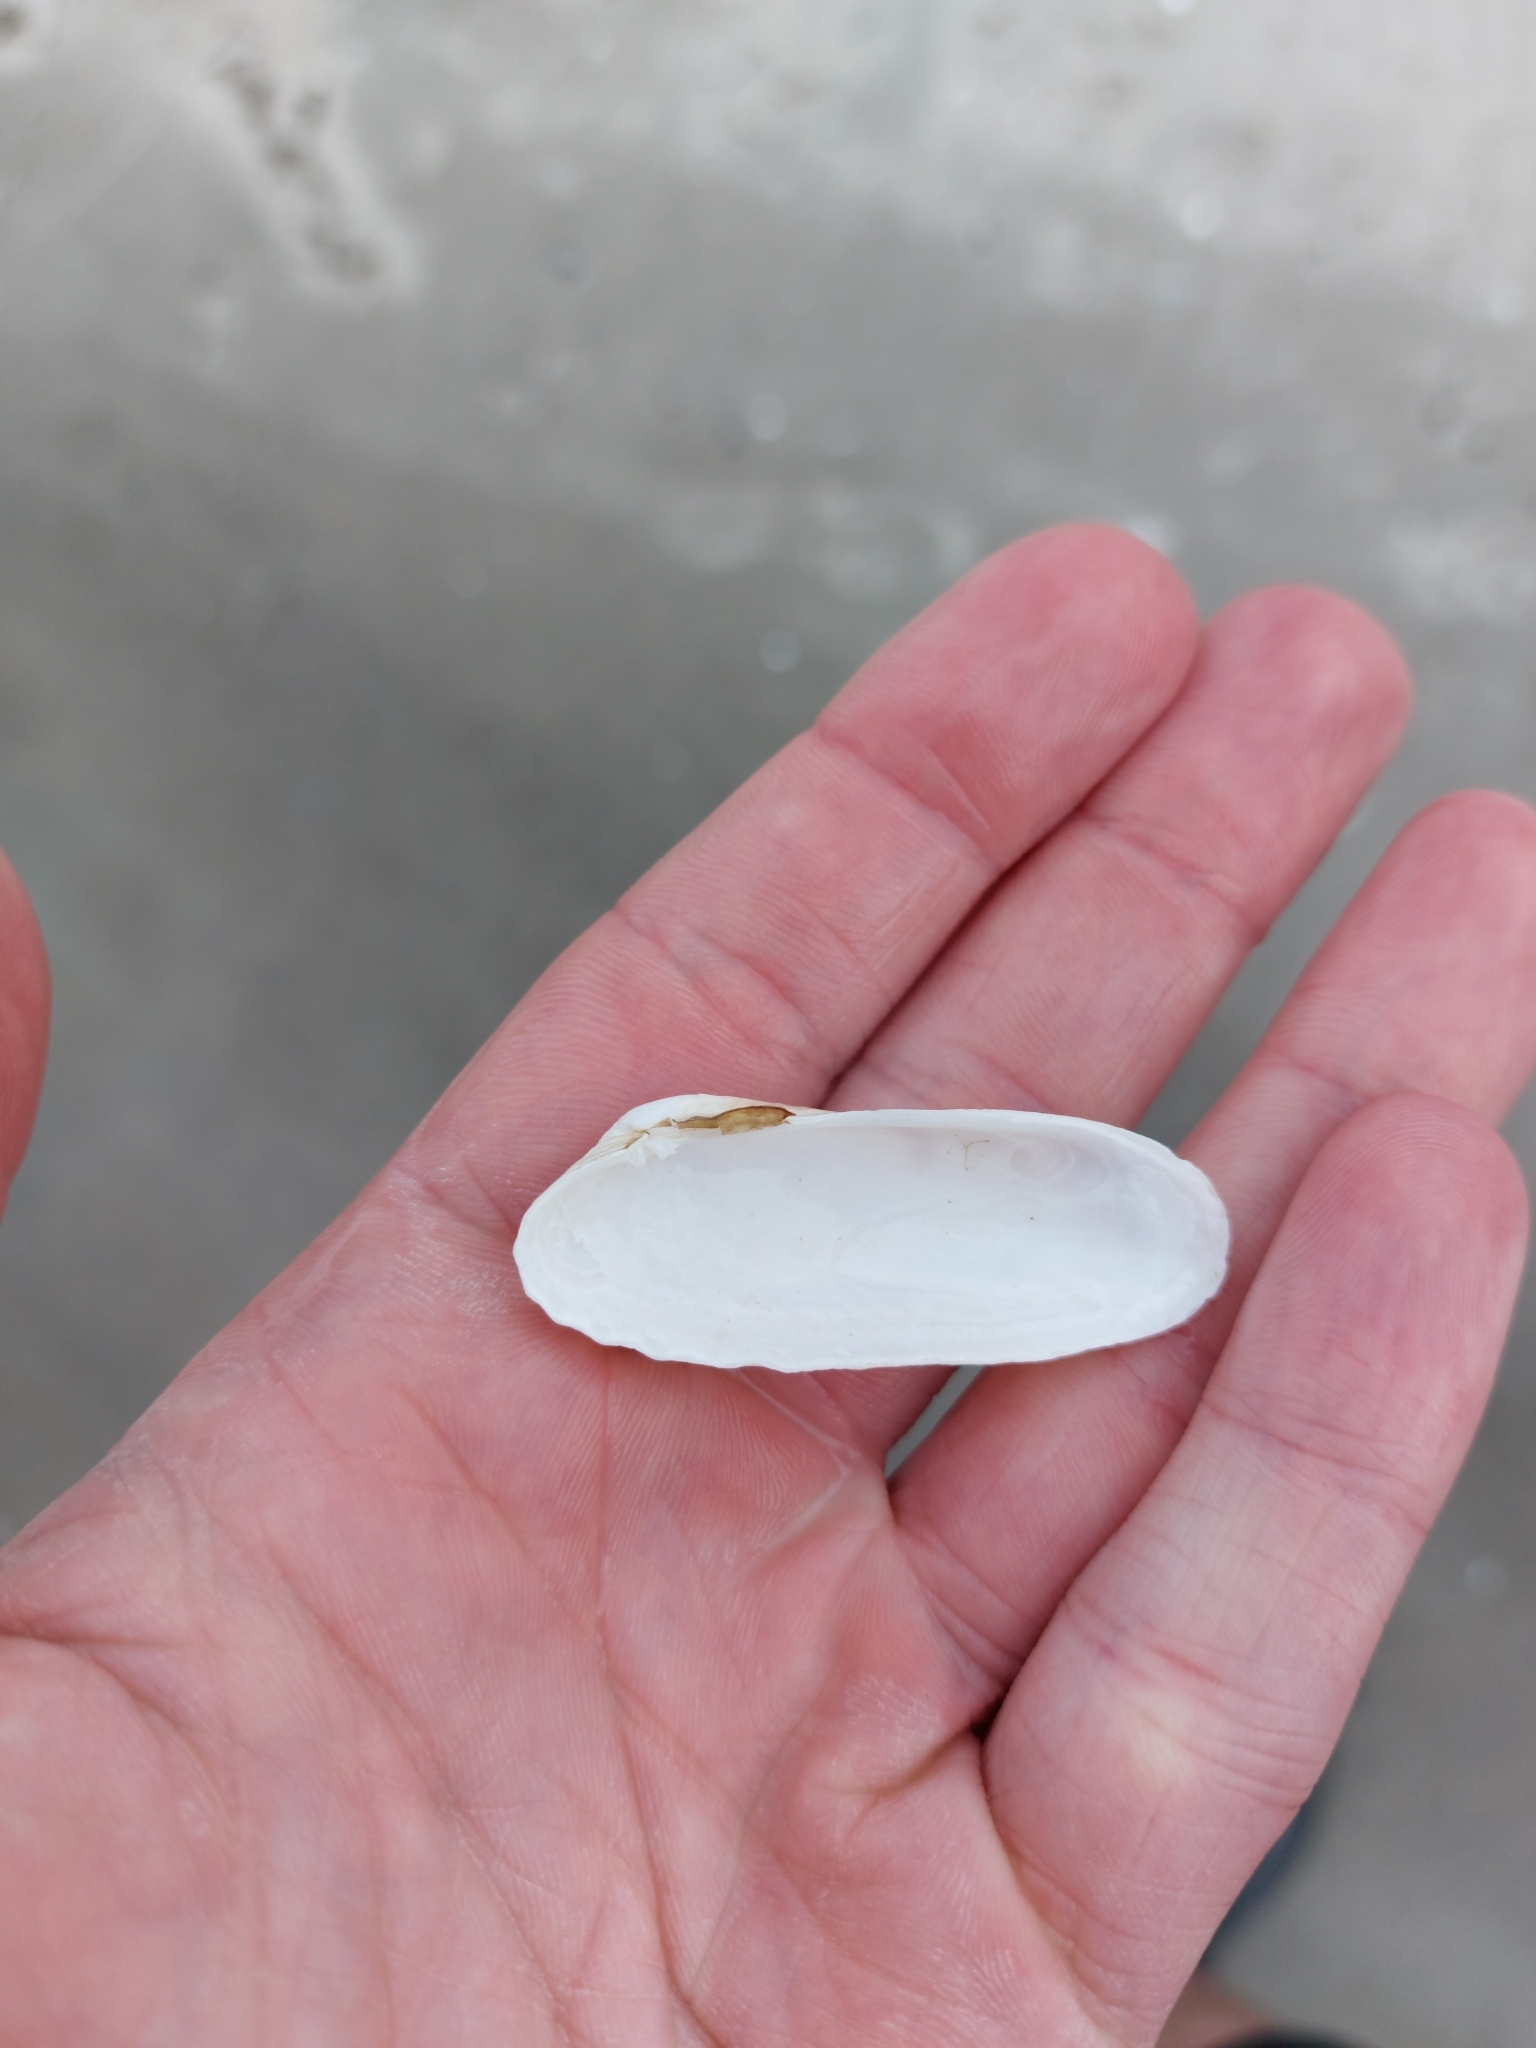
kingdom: Animalia
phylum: Mollusca
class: Bivalvia
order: Venerida
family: Veneridae
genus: Petricolaria
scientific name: Petricolaria pholadiformis
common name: American piddock
